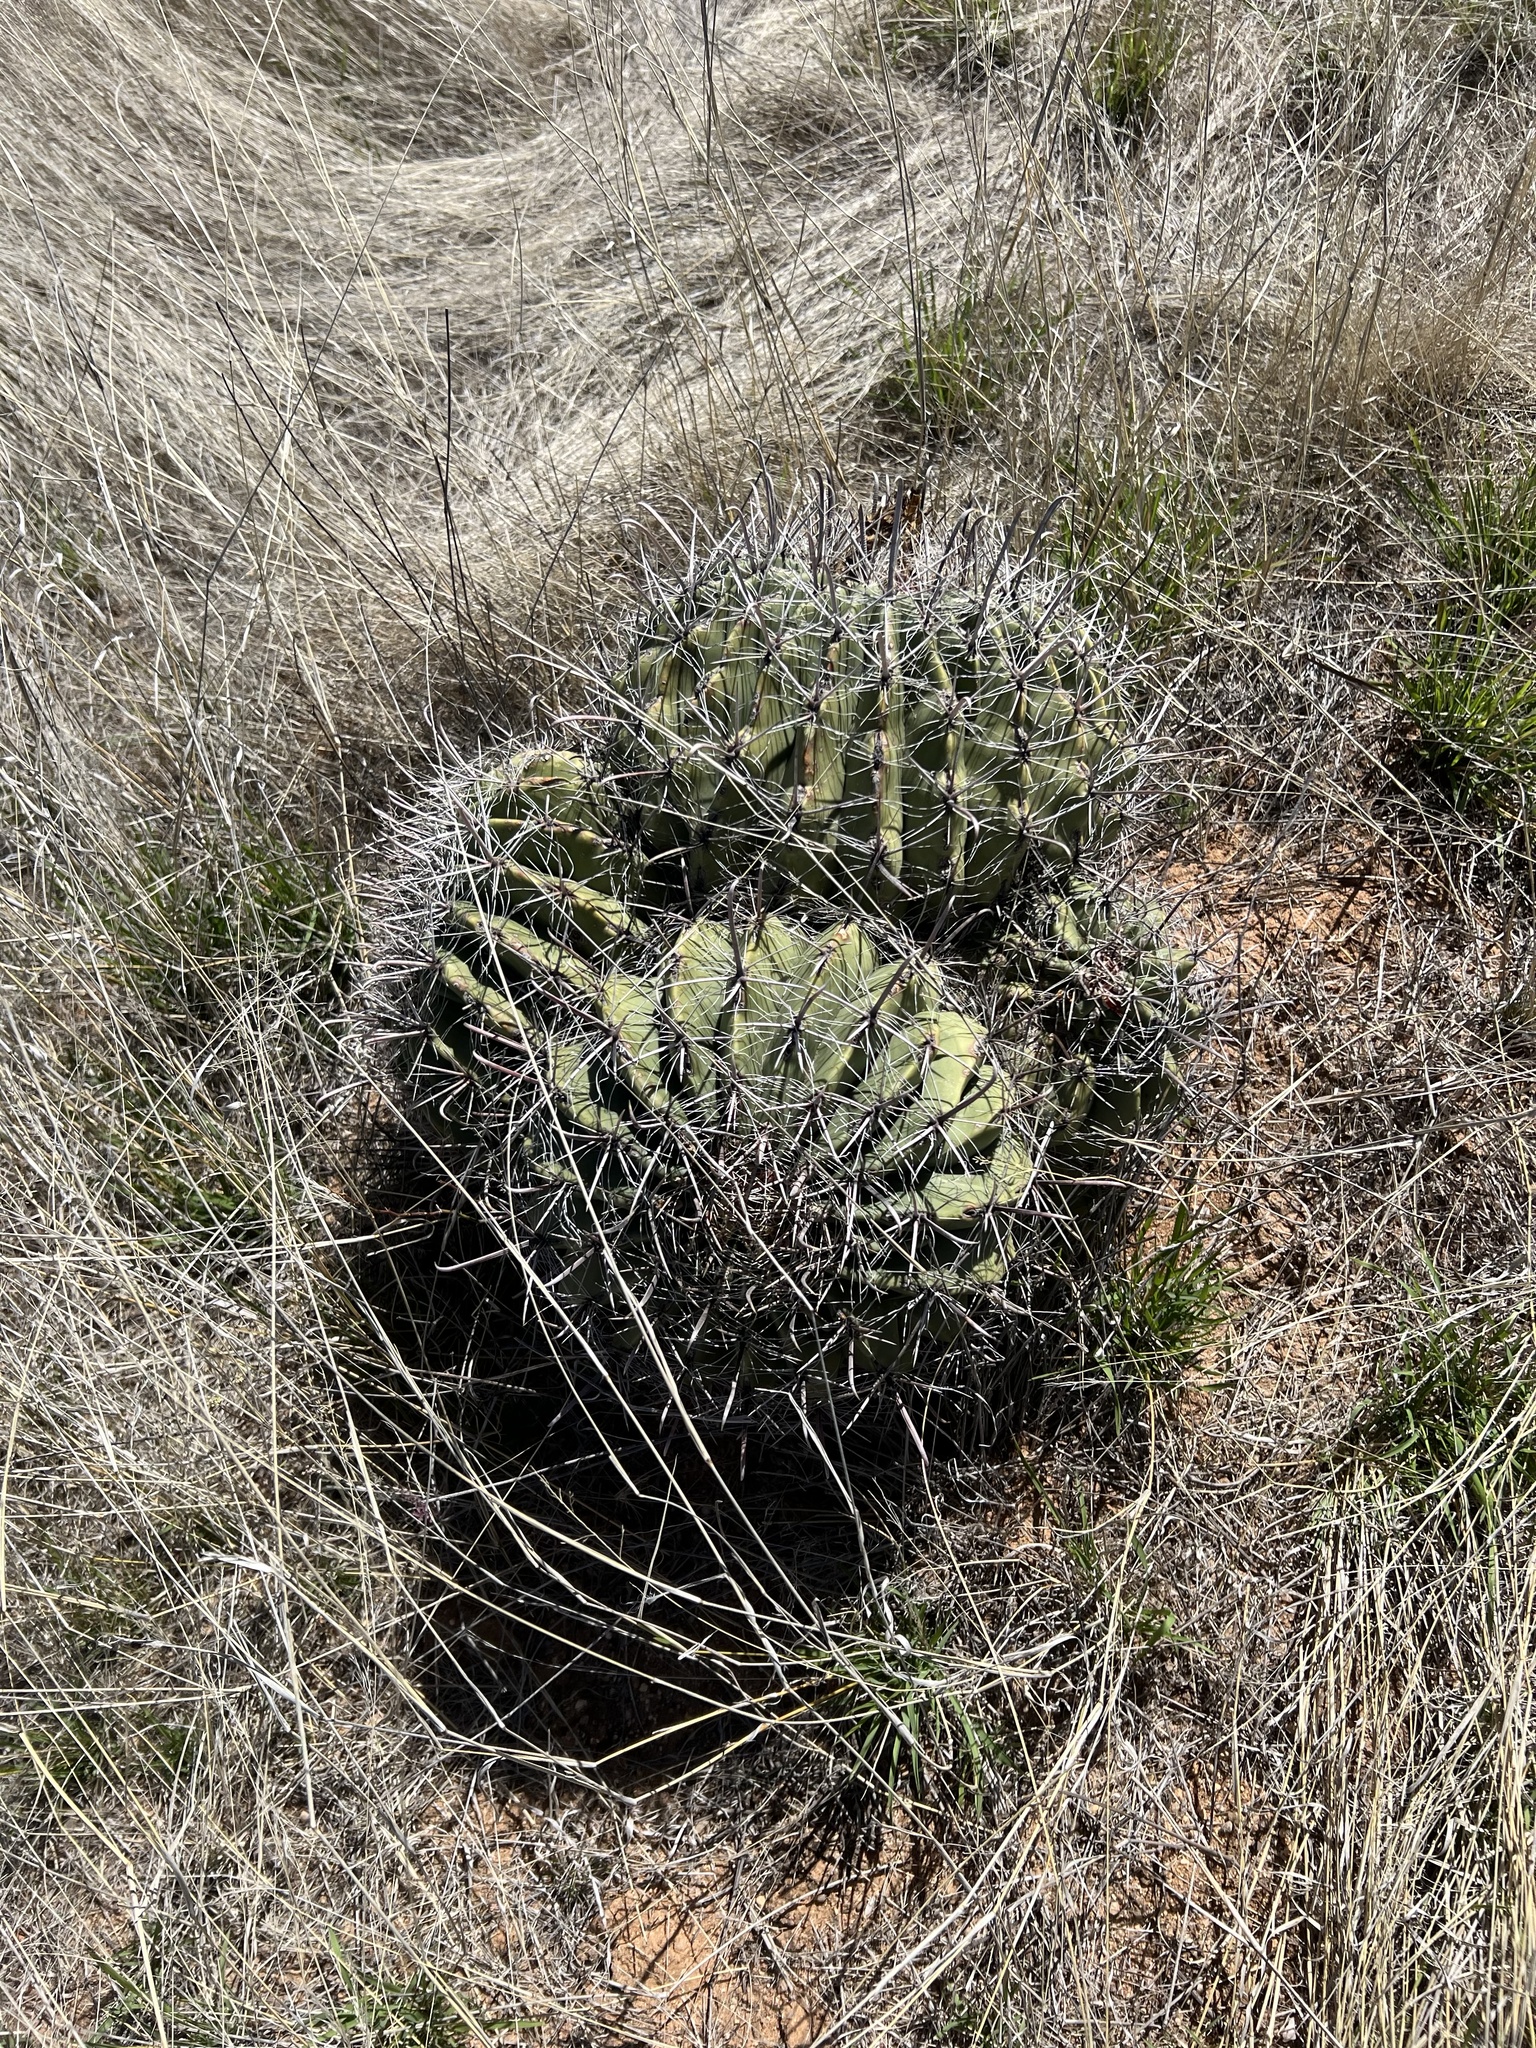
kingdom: Plantae
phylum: Tracheophyta
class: Magnoliopsida
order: Caryophyllales
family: Cactaceae
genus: Ferocactus
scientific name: Ferocactus wislizeni
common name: Candy barrel cactus
